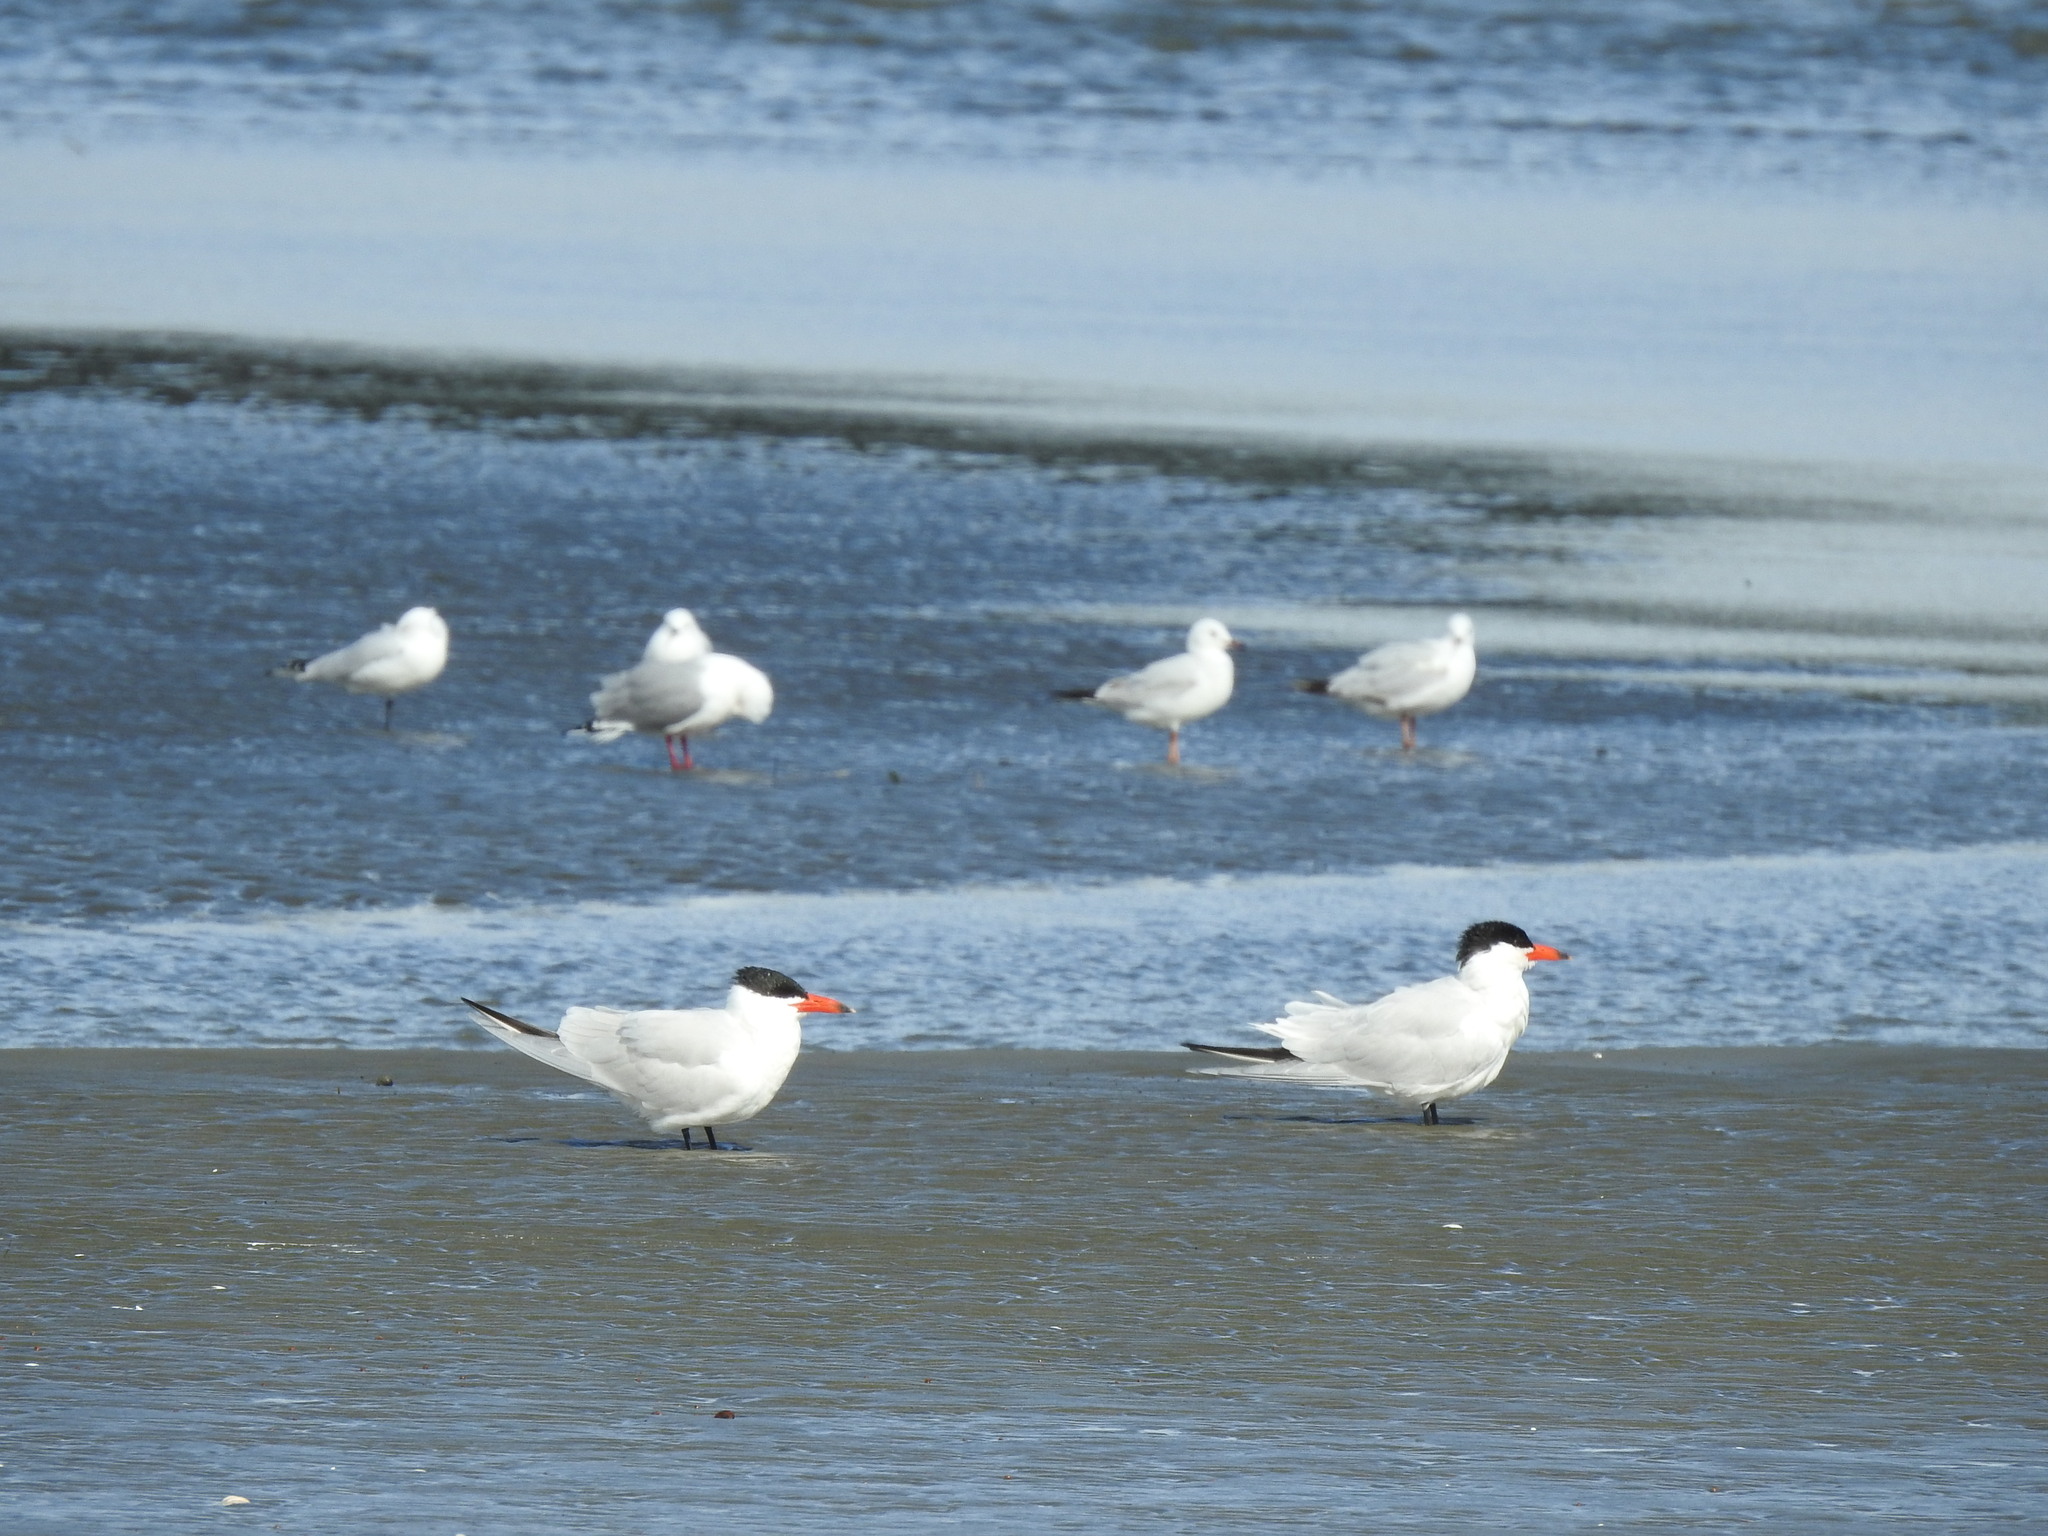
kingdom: Animalia
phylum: Chordata
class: Aves
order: Charadriiformes
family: Laridae
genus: Hydroprogne
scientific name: Hydroprogne caspia
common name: Caspian tern
